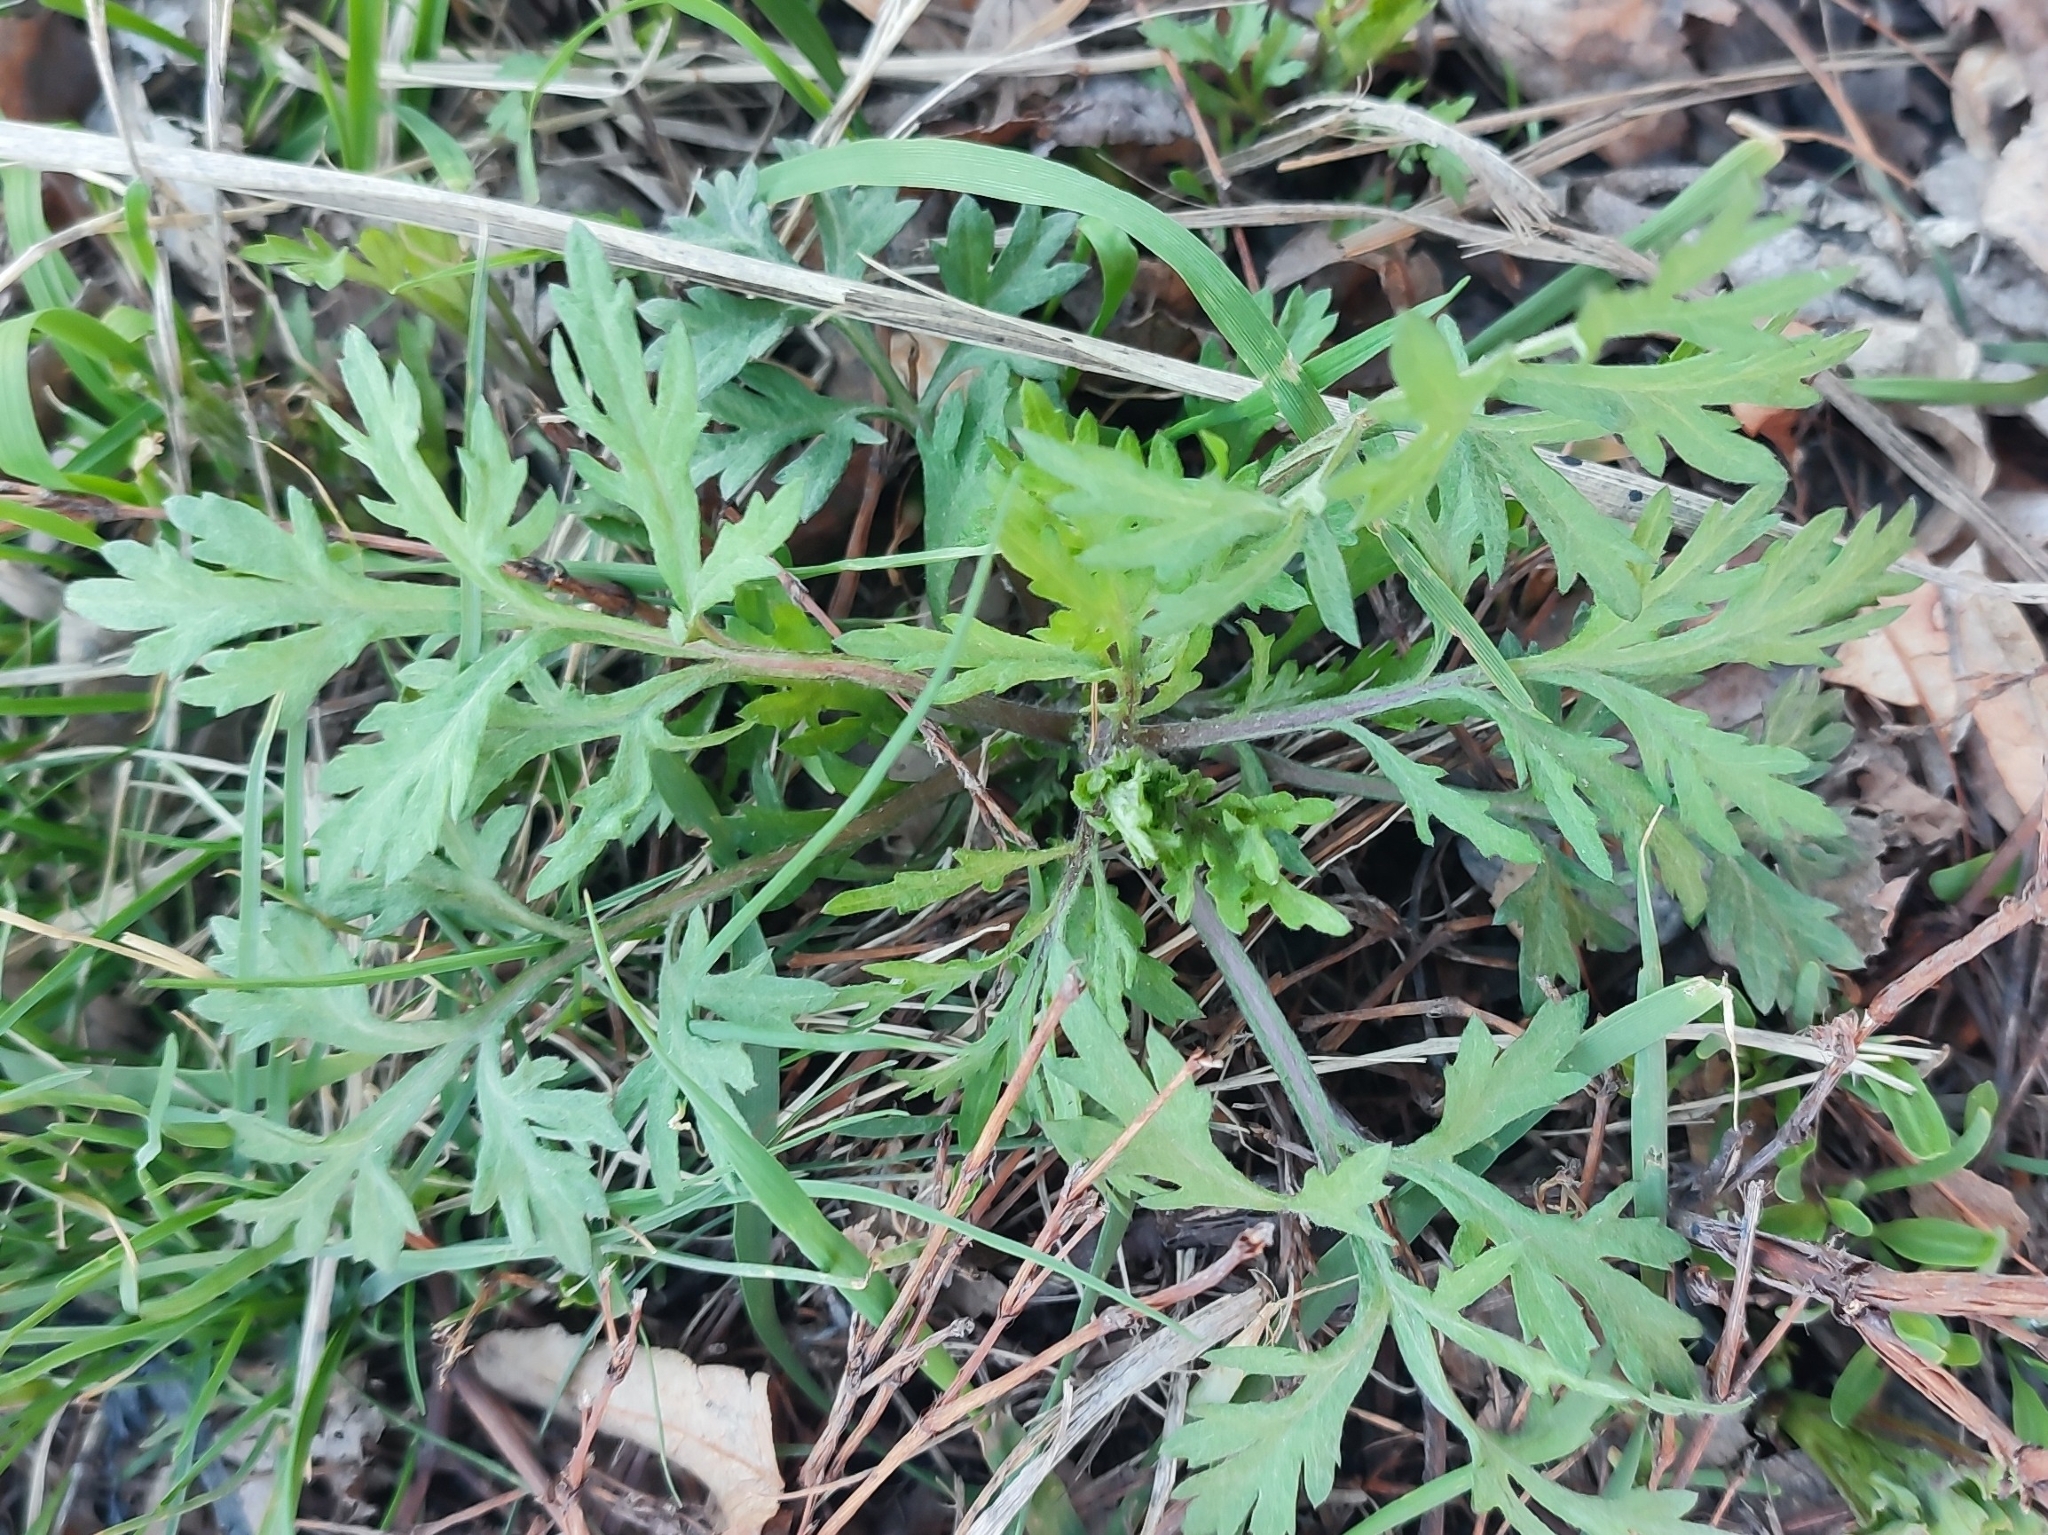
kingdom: Plantae
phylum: Tracheophyta
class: Magnoliopsida
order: Asterales
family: Asteraceae
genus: Artemisia
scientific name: Artemisia vulgaris
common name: Mugwort
